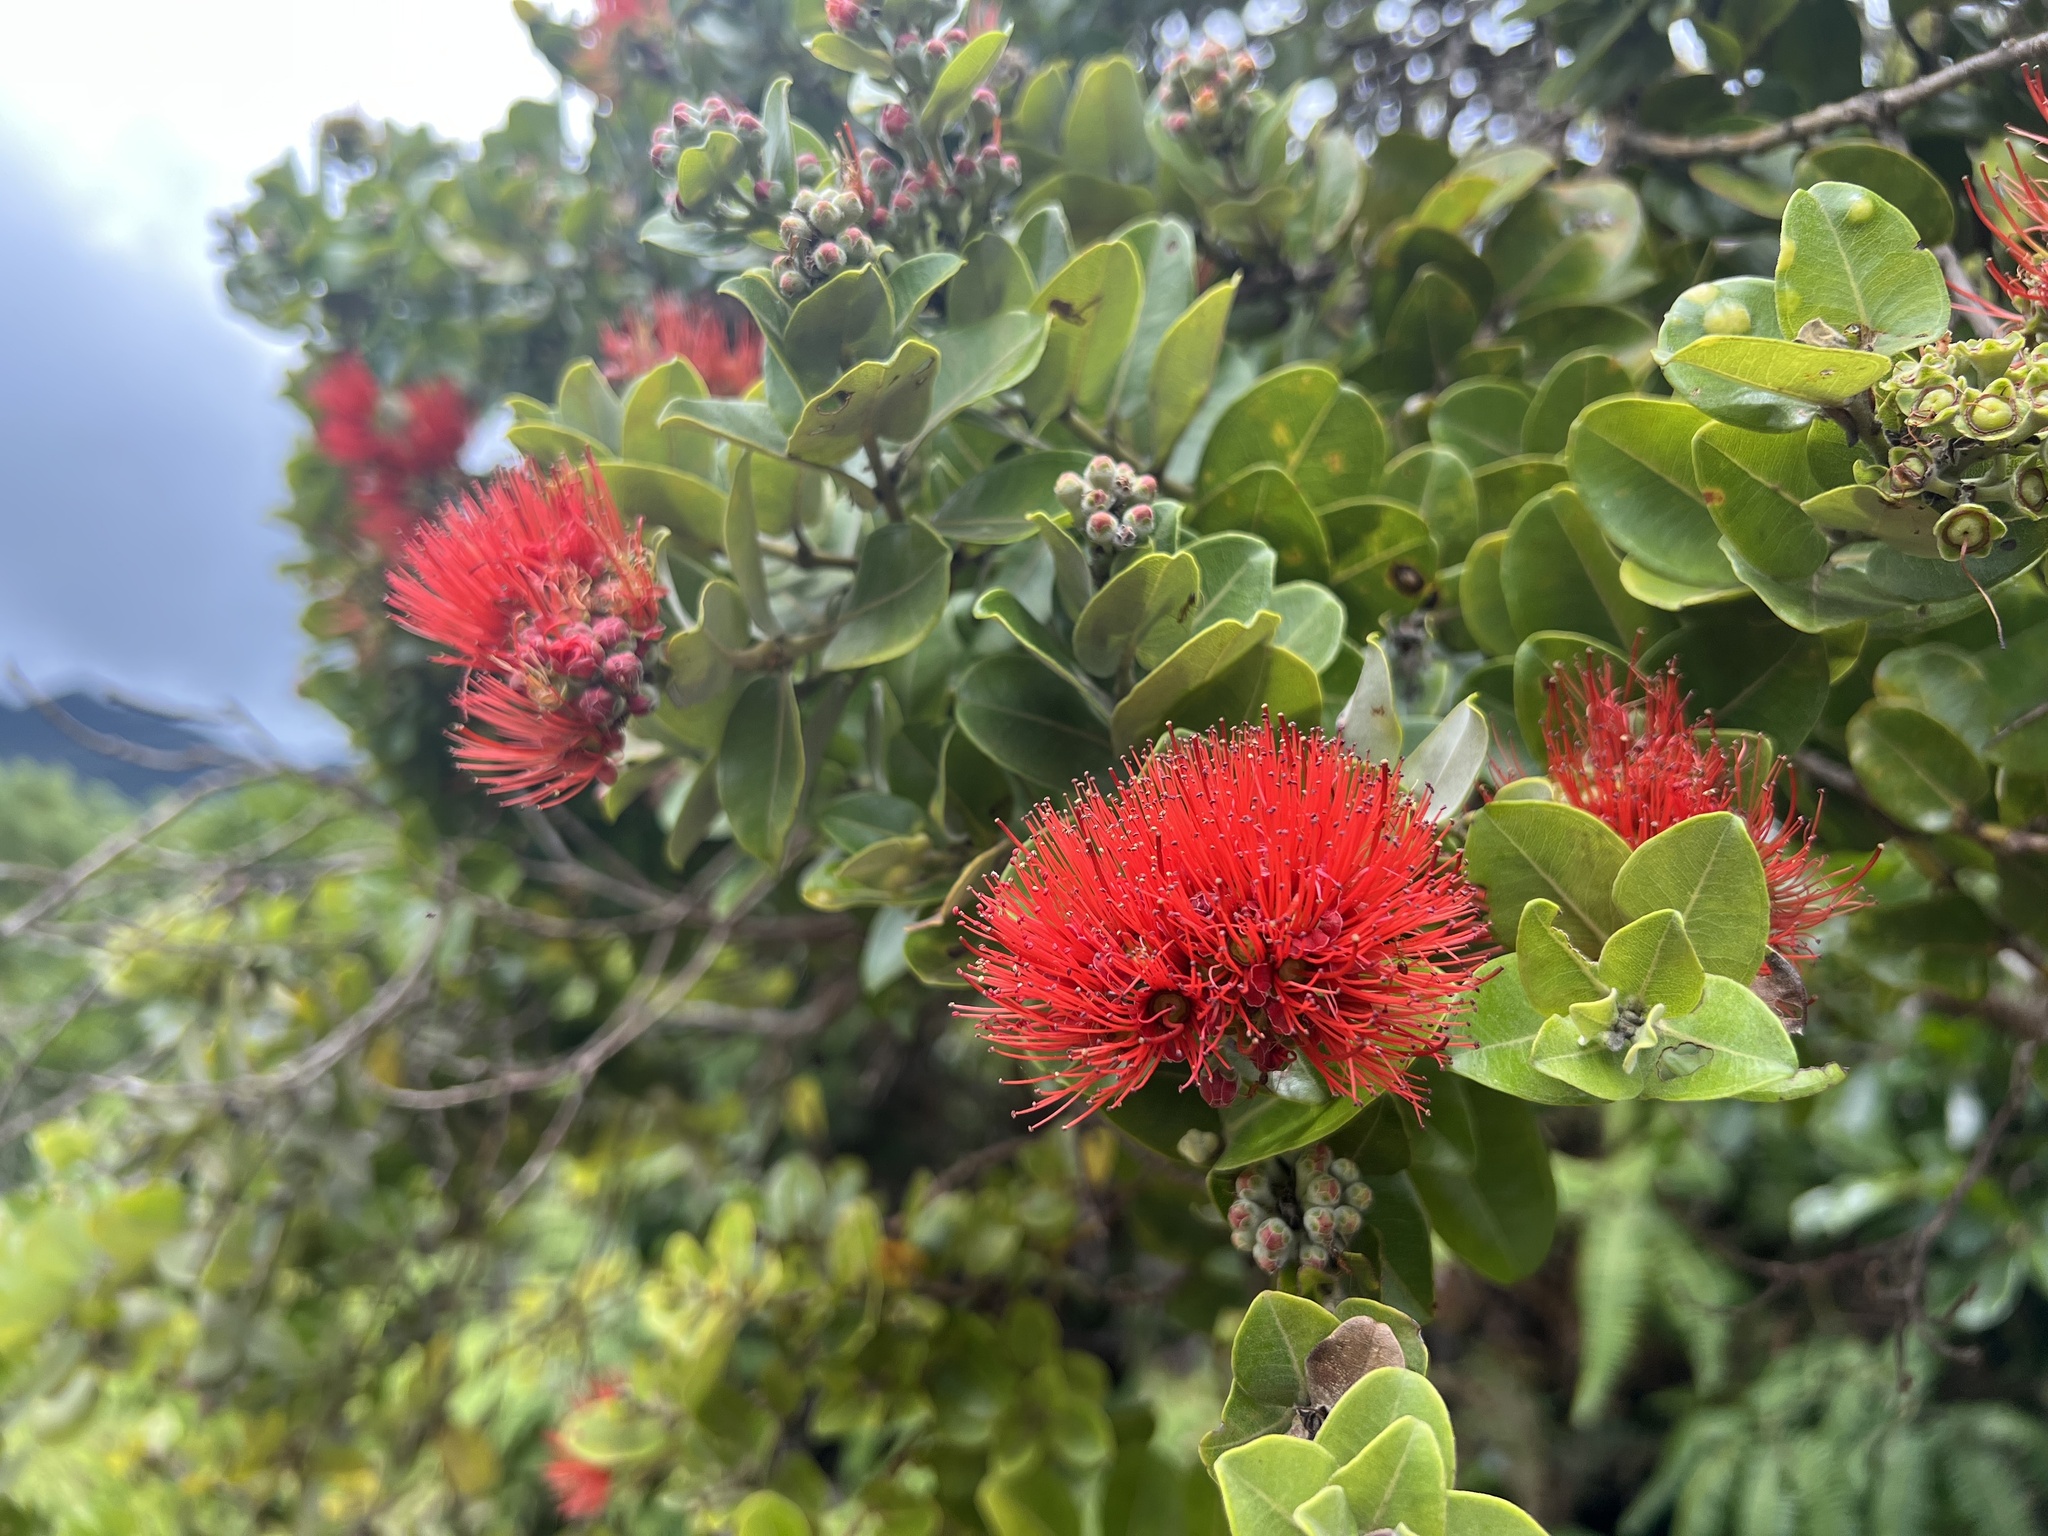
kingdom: Plantae
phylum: Tracheophyta
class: Magnoliopsida
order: Myrtales
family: Myrtaceae
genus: Metrosideros
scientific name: Metrosideros polymorpha
